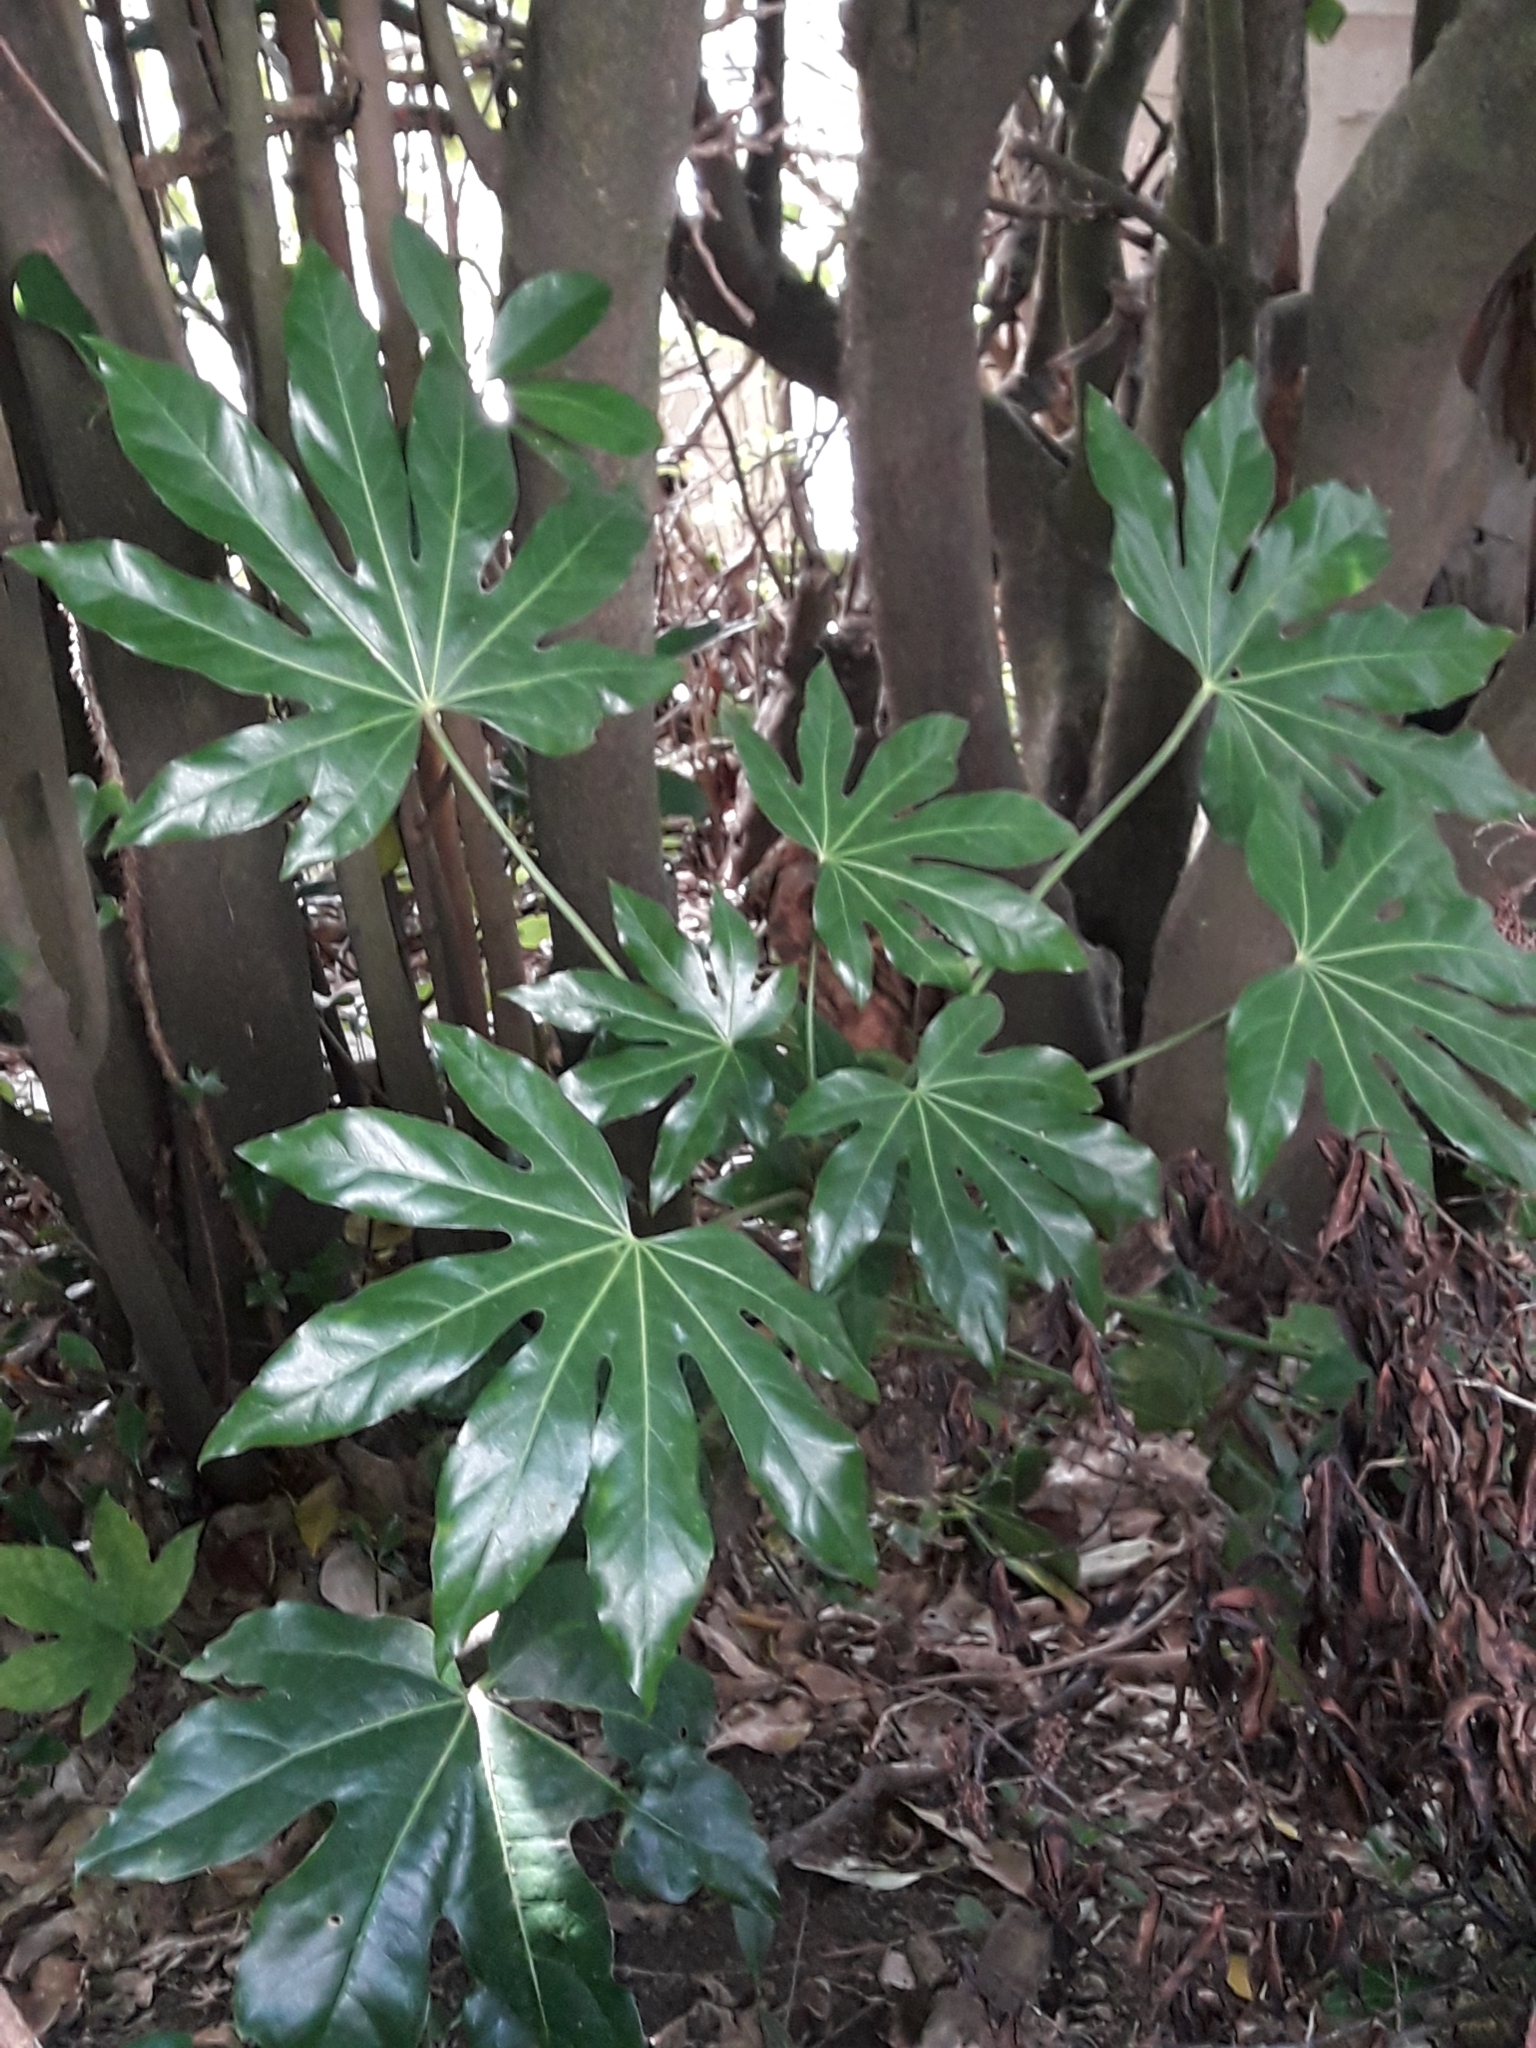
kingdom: Plantae
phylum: Tracheophyta
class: Magnoliopsida
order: Apiales
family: Araliaceae
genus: Fatsia
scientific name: Fatsia japonica
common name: Fatsia
